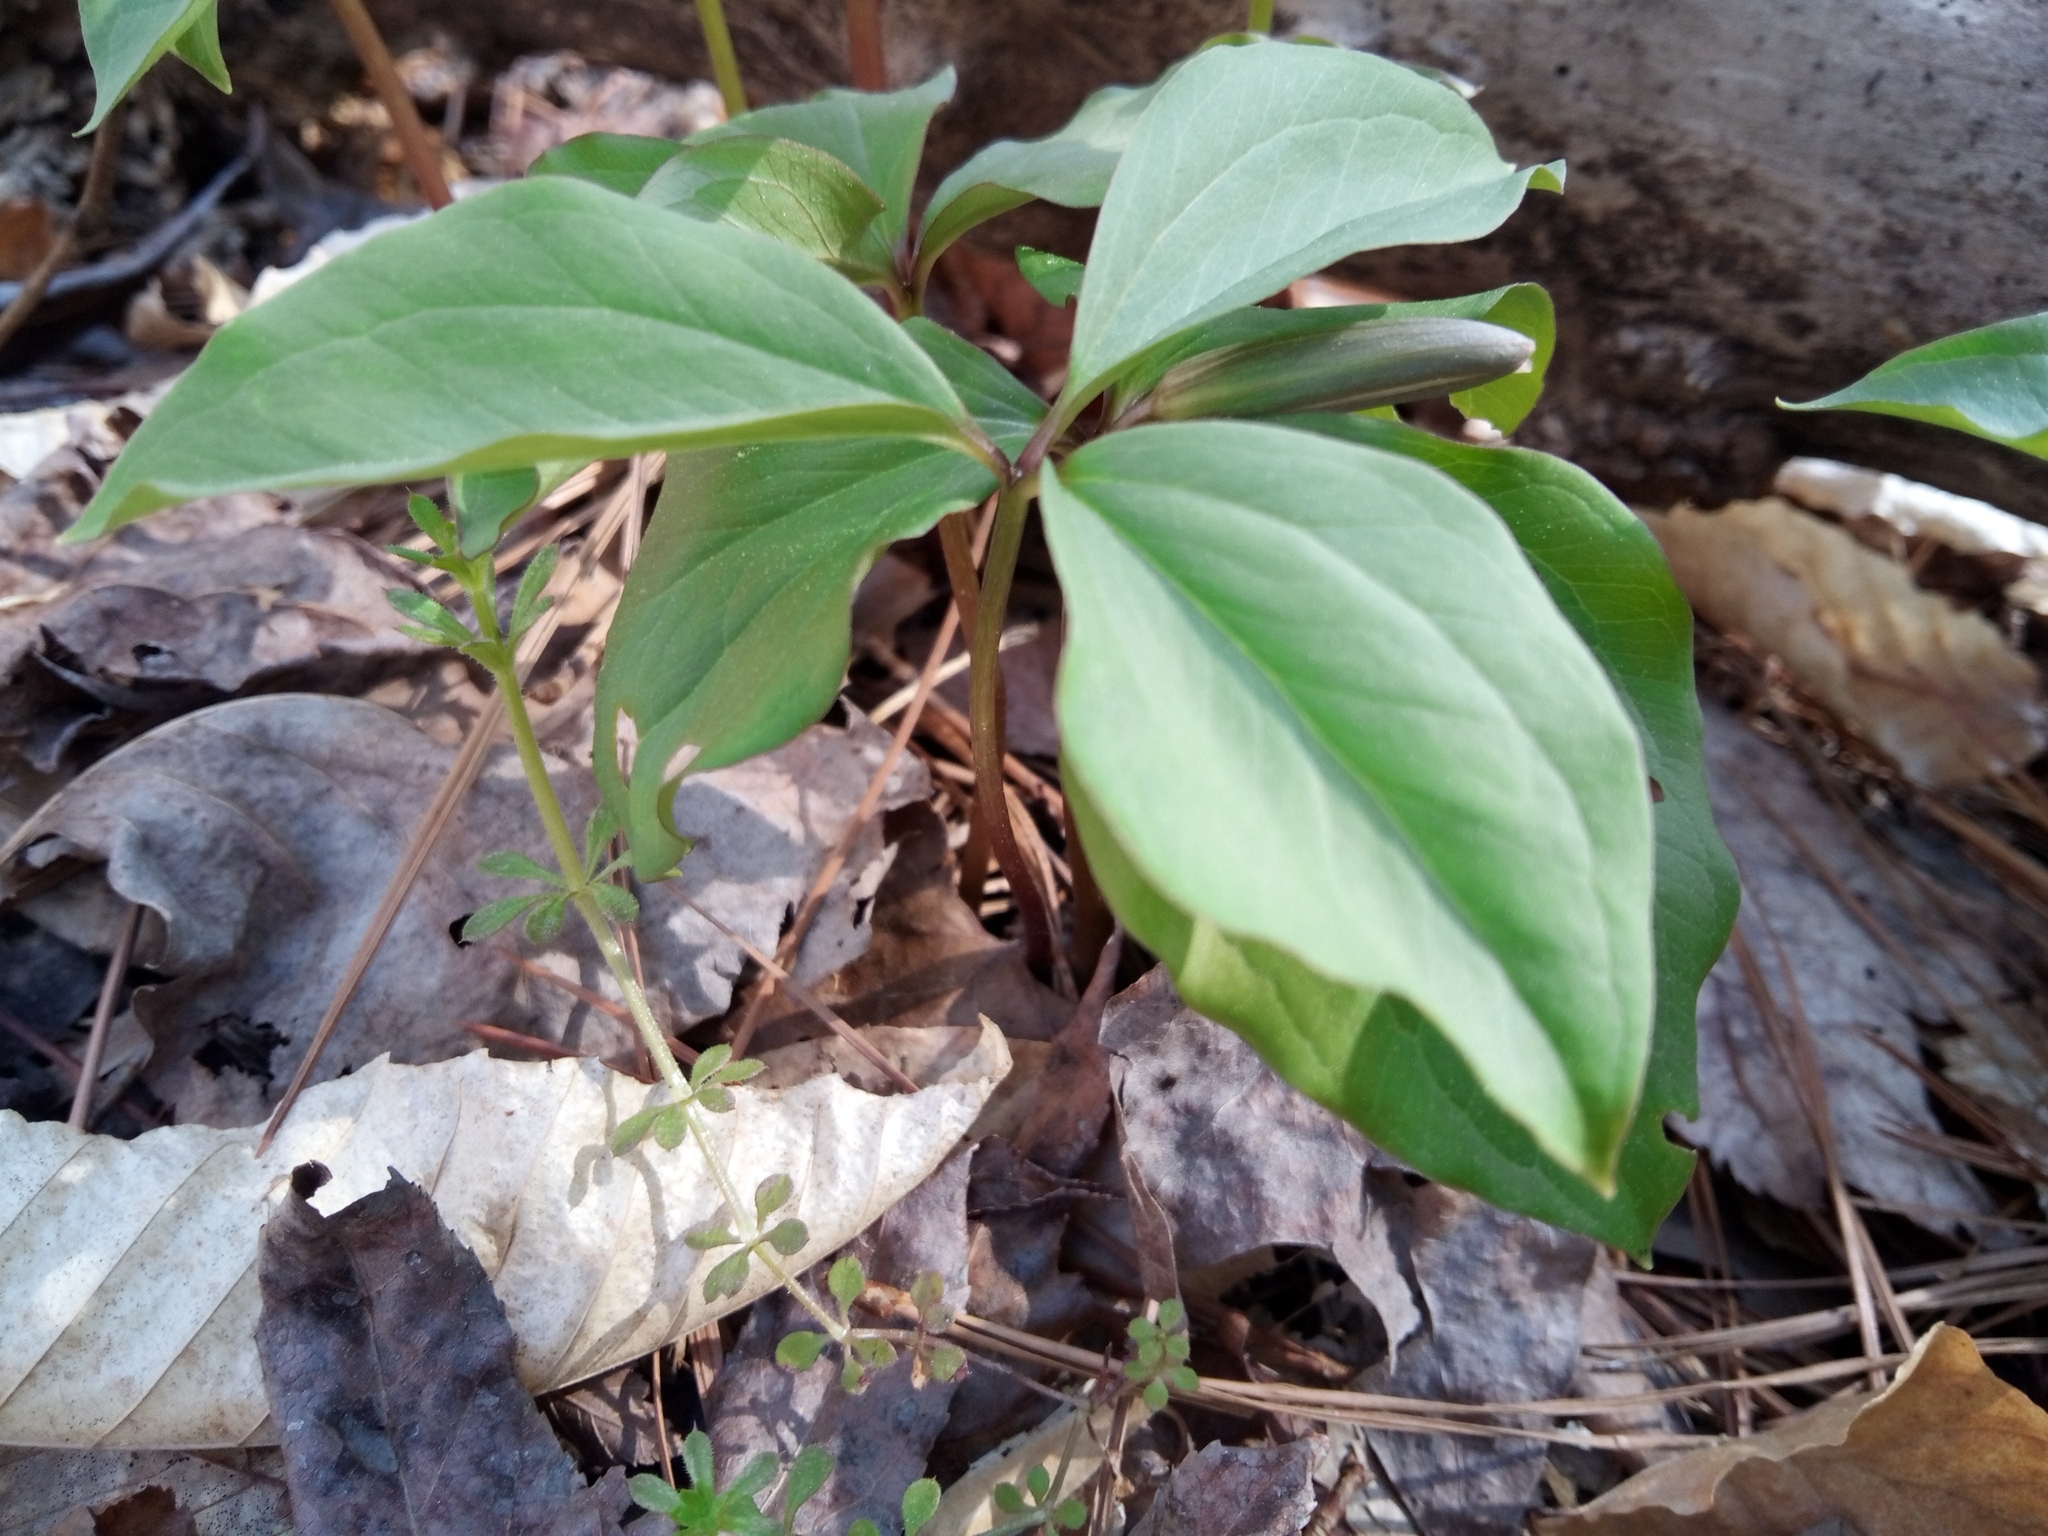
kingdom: Plantae
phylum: Tracheophyta
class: Liliopsida
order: Liliales
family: Melanthiaceae
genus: Trillium
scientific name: Trillium catesbaei
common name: Bashful trillium
